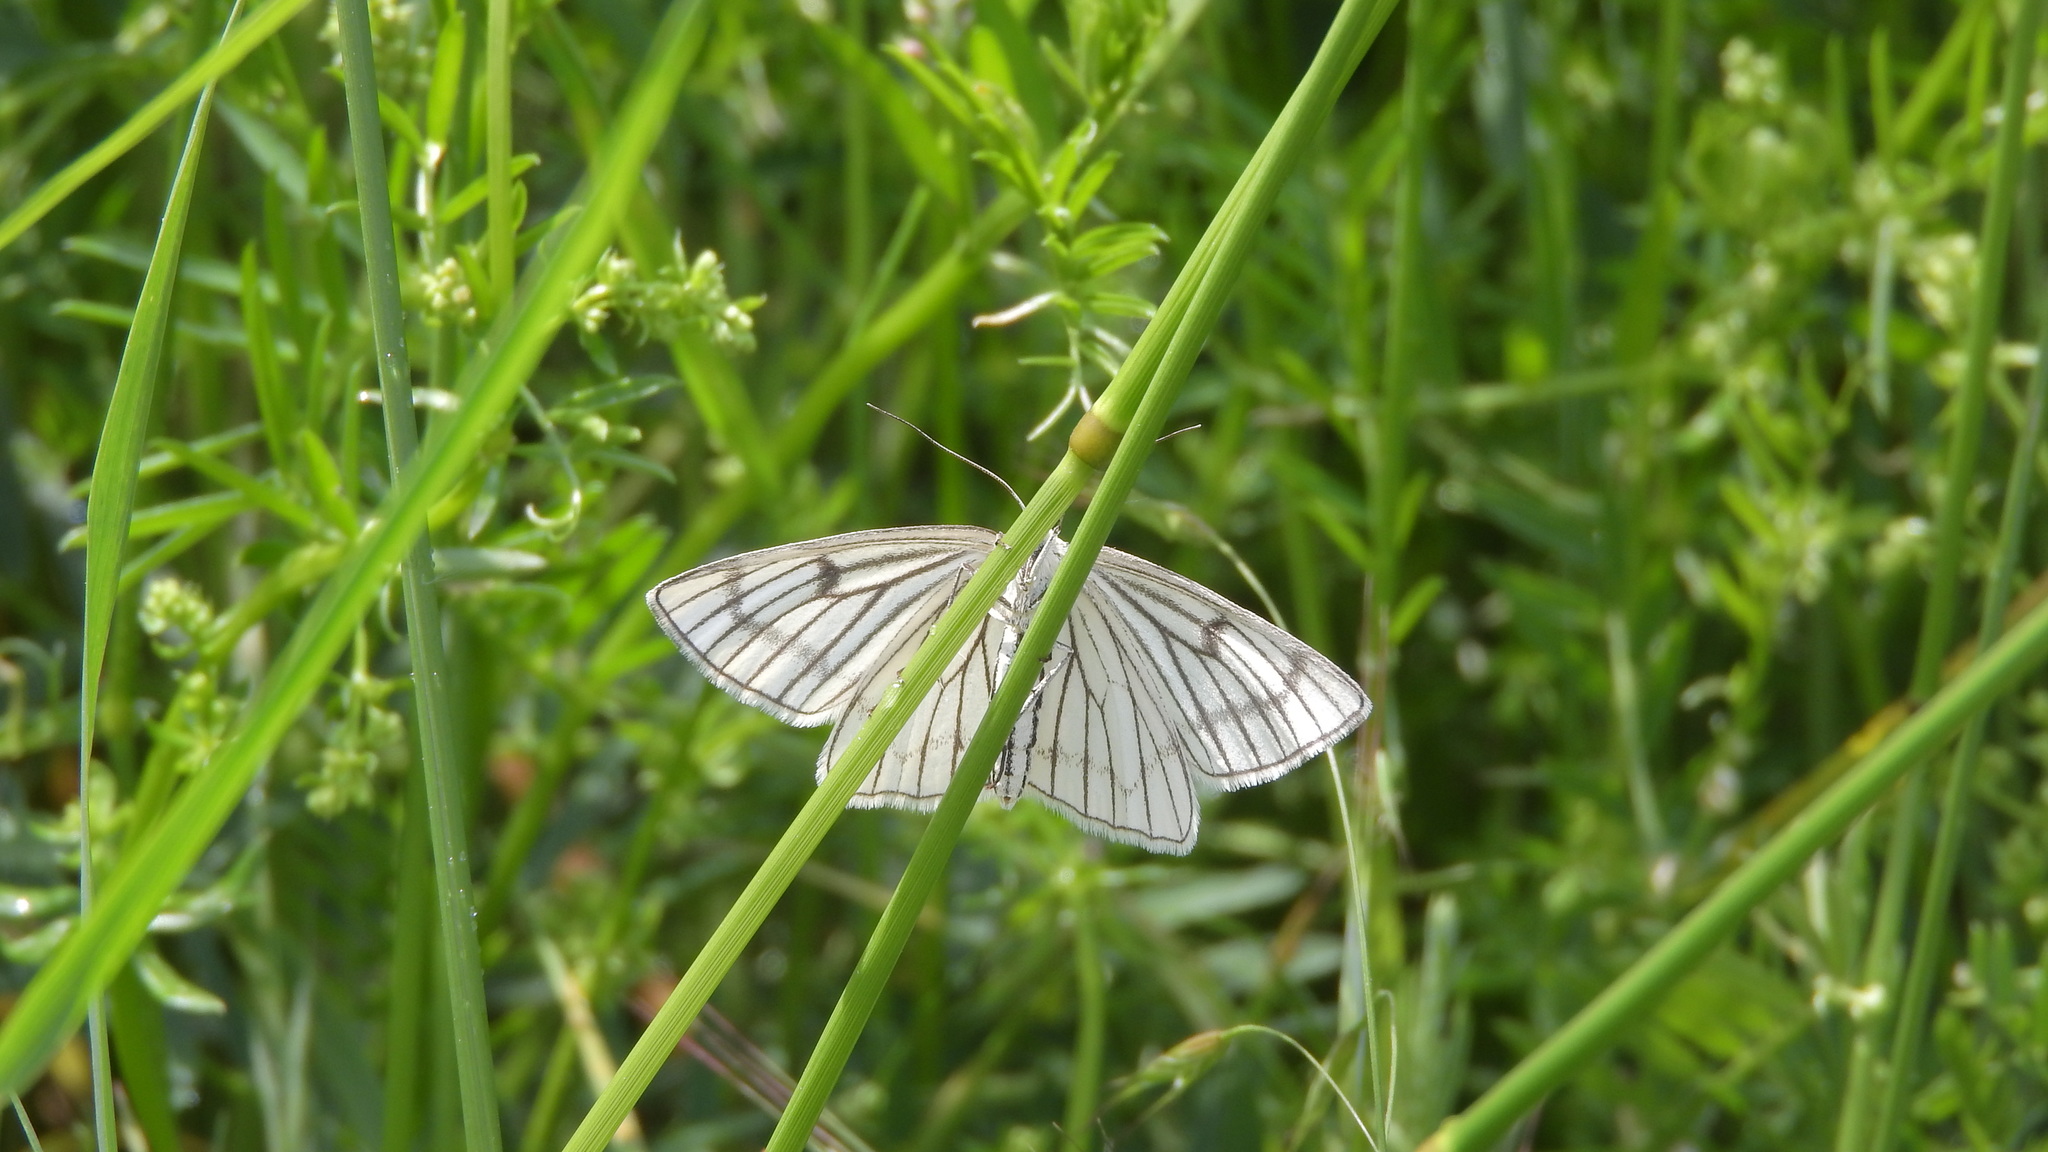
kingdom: Animalia
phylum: Arthropoda
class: Insecta
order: Lepidoptera
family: Geometridae
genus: Siona
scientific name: Siona lineata
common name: Black-veined moth
